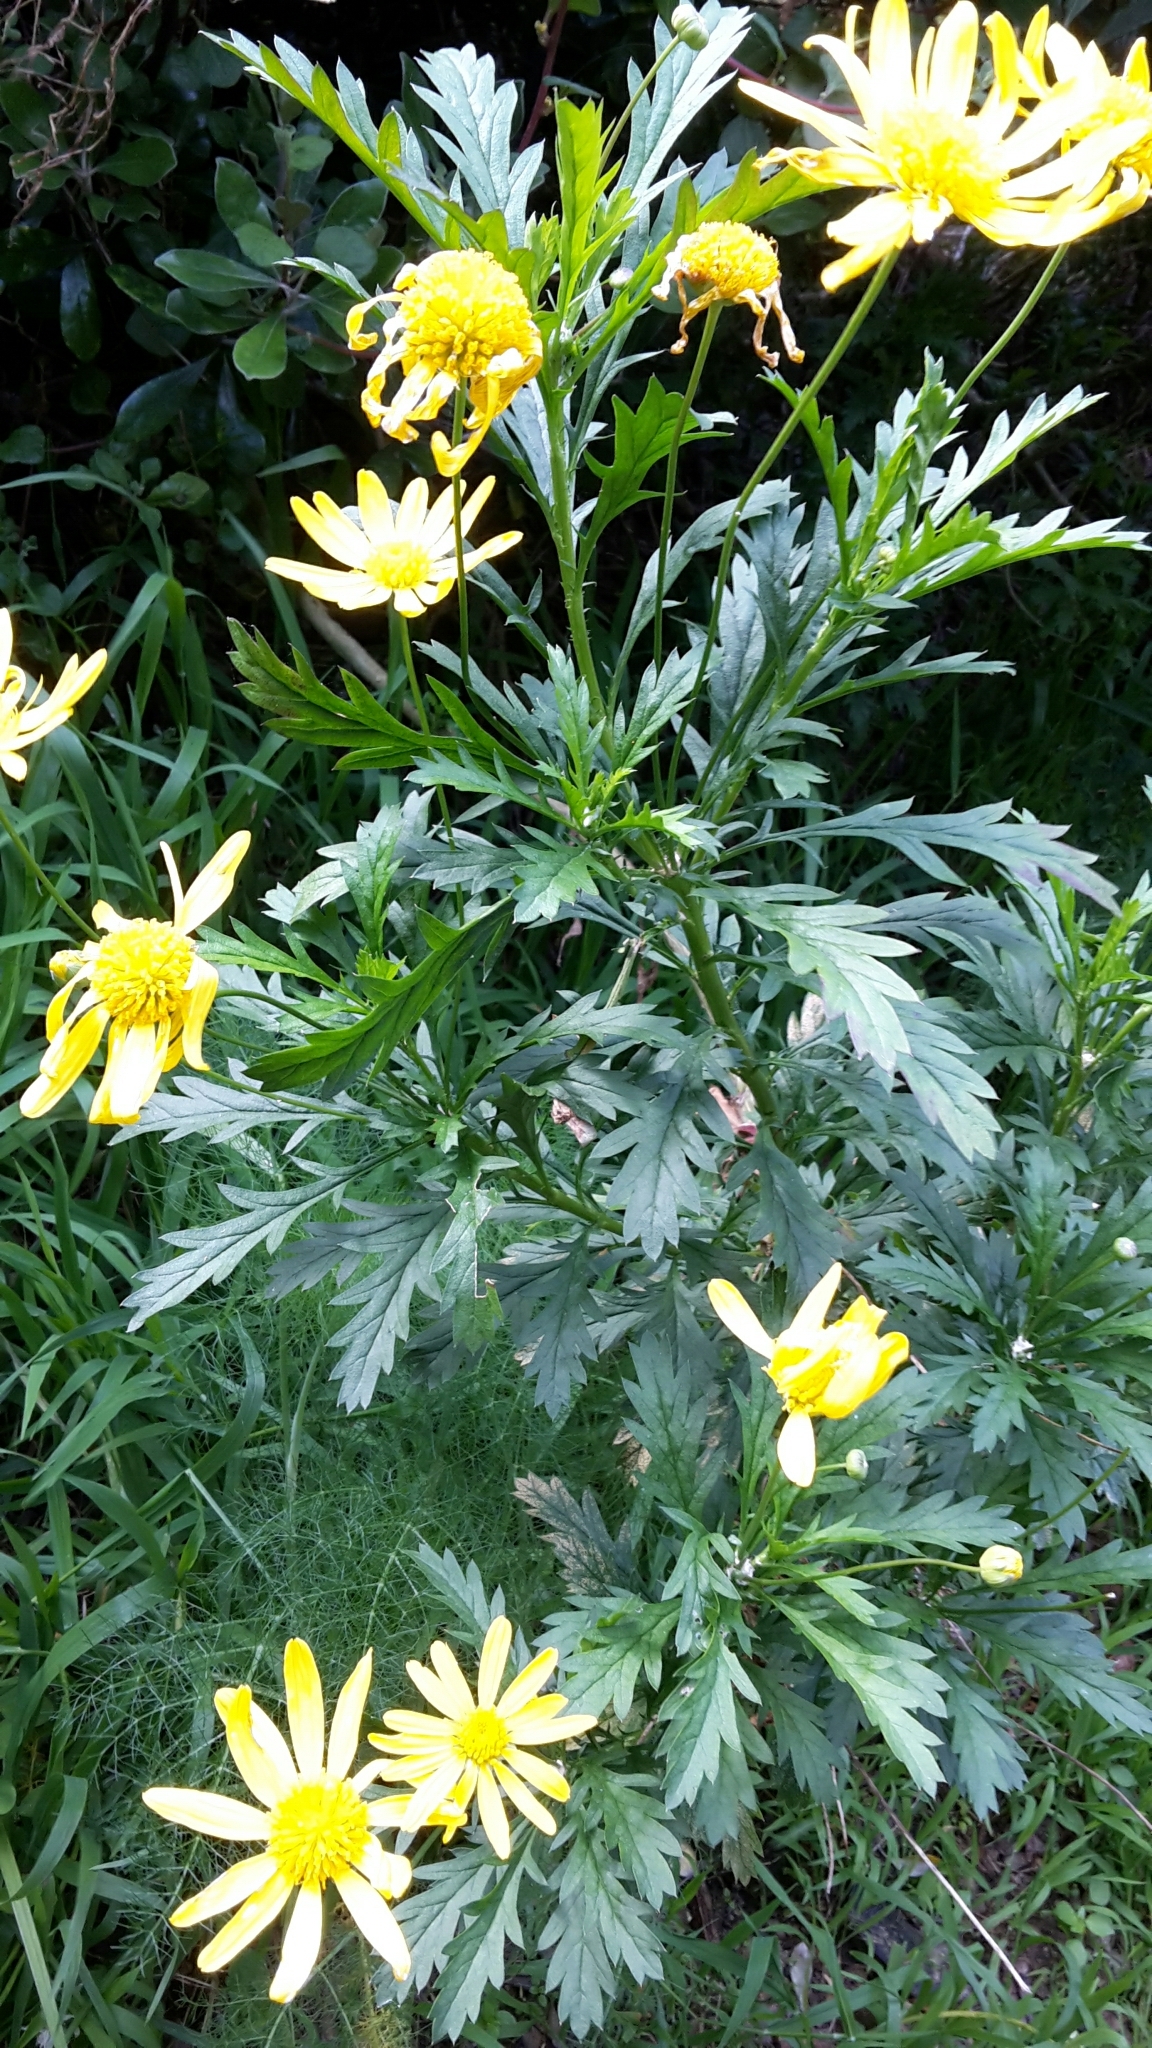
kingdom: Plantae
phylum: Tracheophyta
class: Magnoliopsida
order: Asterales
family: Asteraceae
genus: Euryops
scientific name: Euryops chrysanthemoides
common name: Bull's eye
